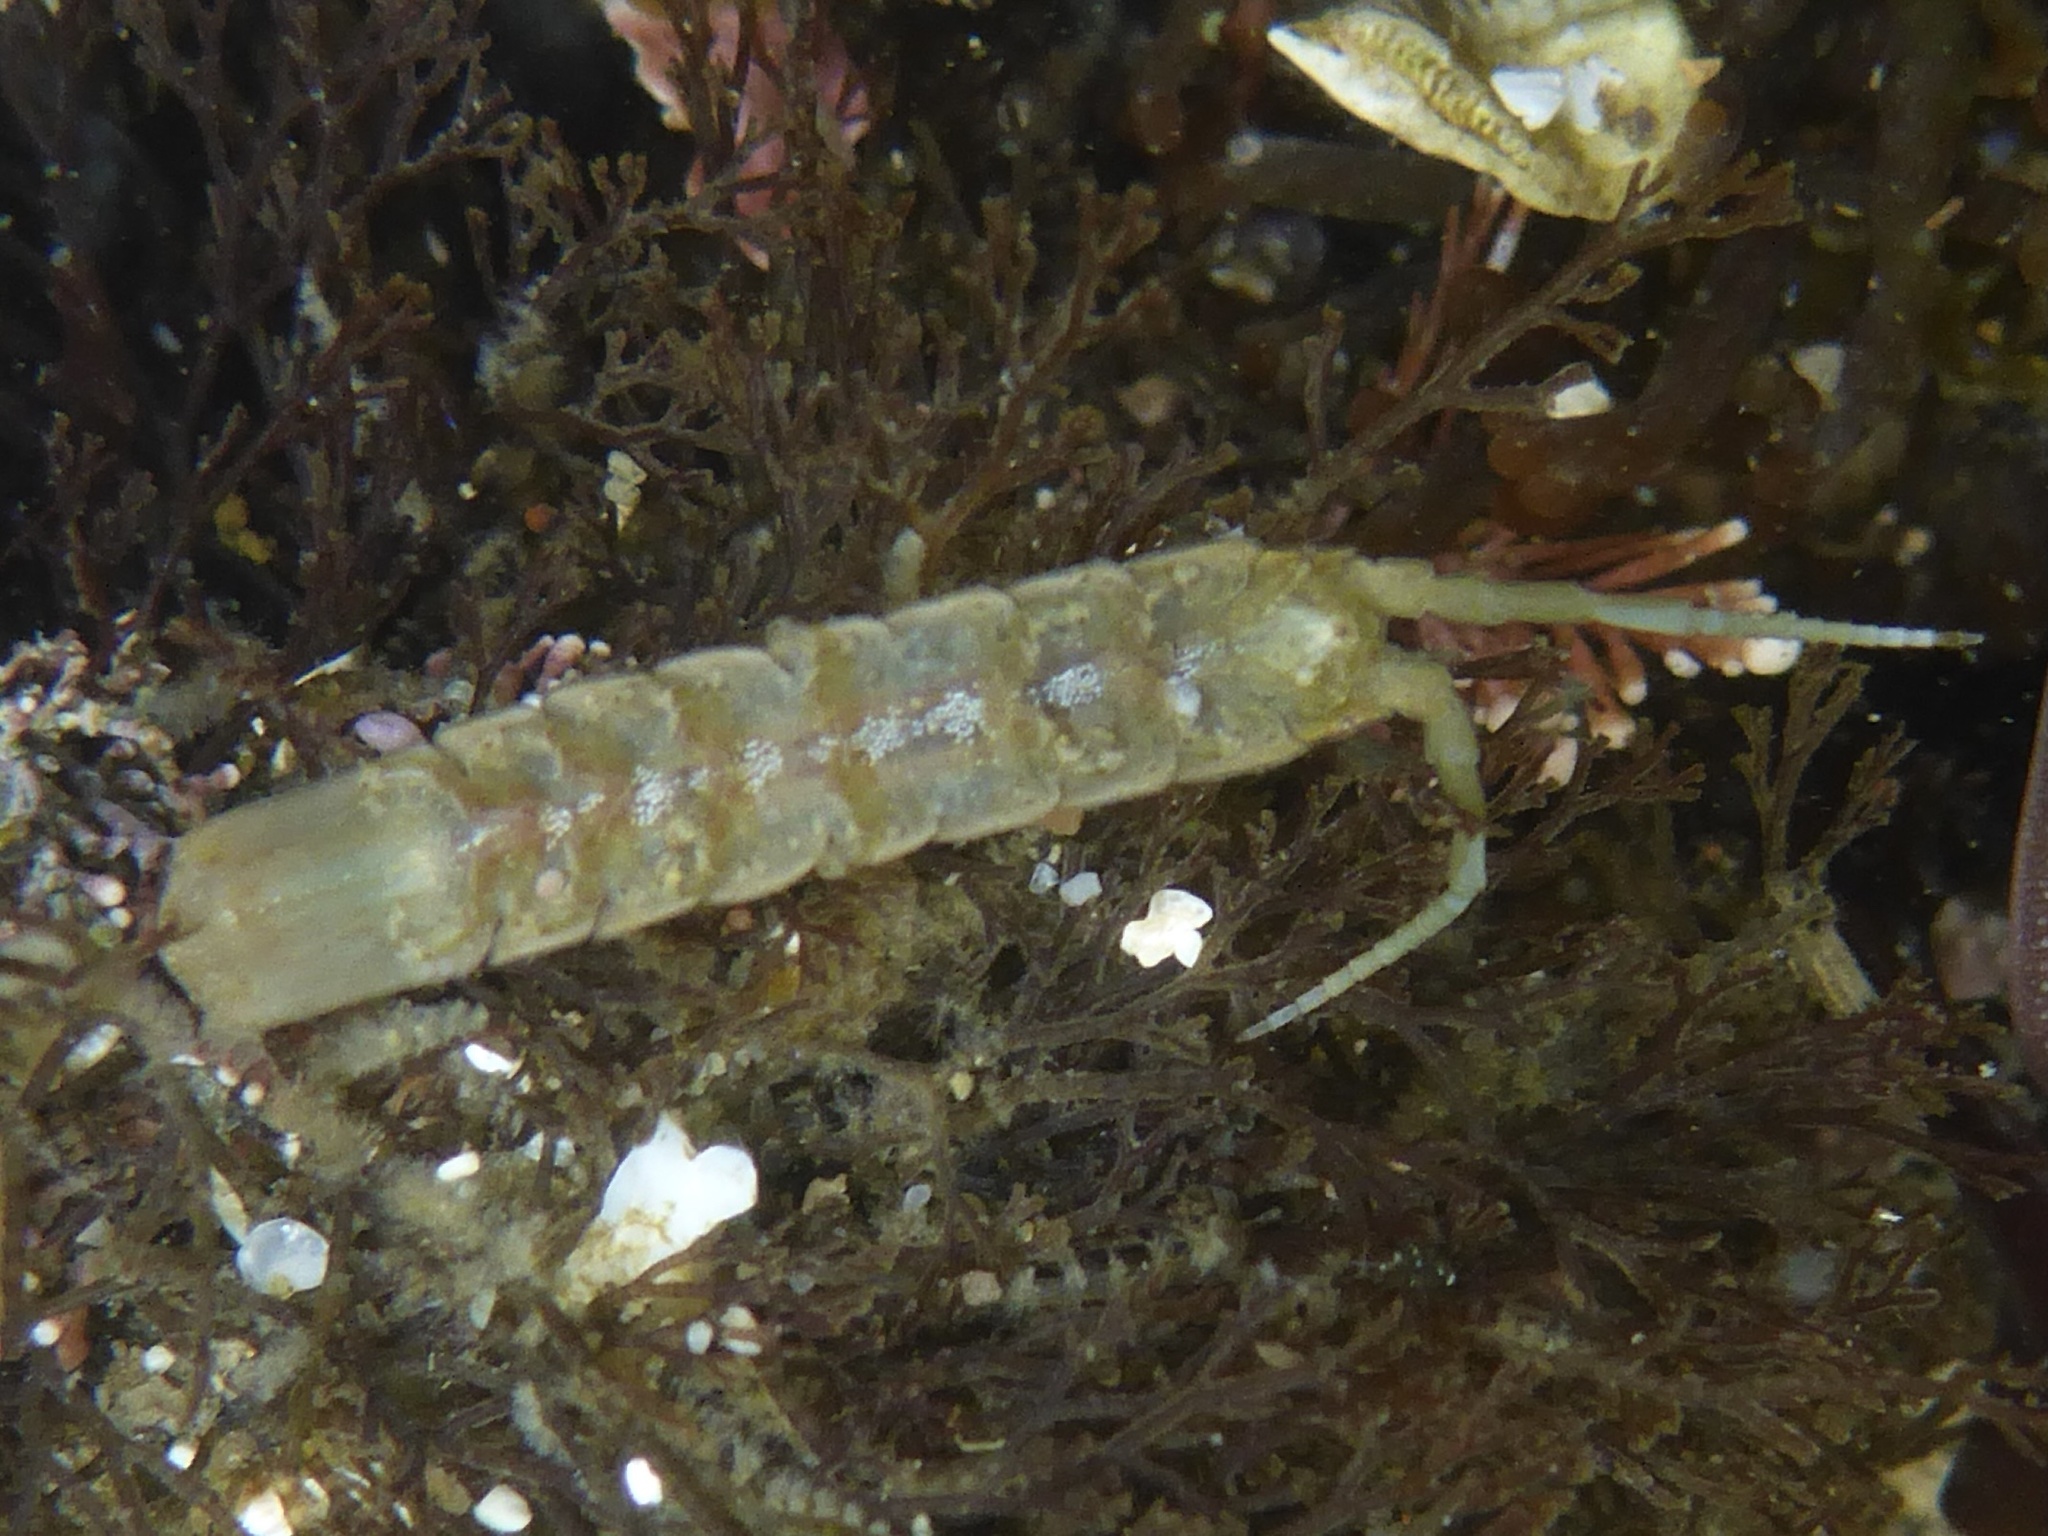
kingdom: Animalia
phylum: Arthropoda
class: Malacostraca
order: Isopoda
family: Idoteidae
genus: Idotea
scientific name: Idotea urotoma
